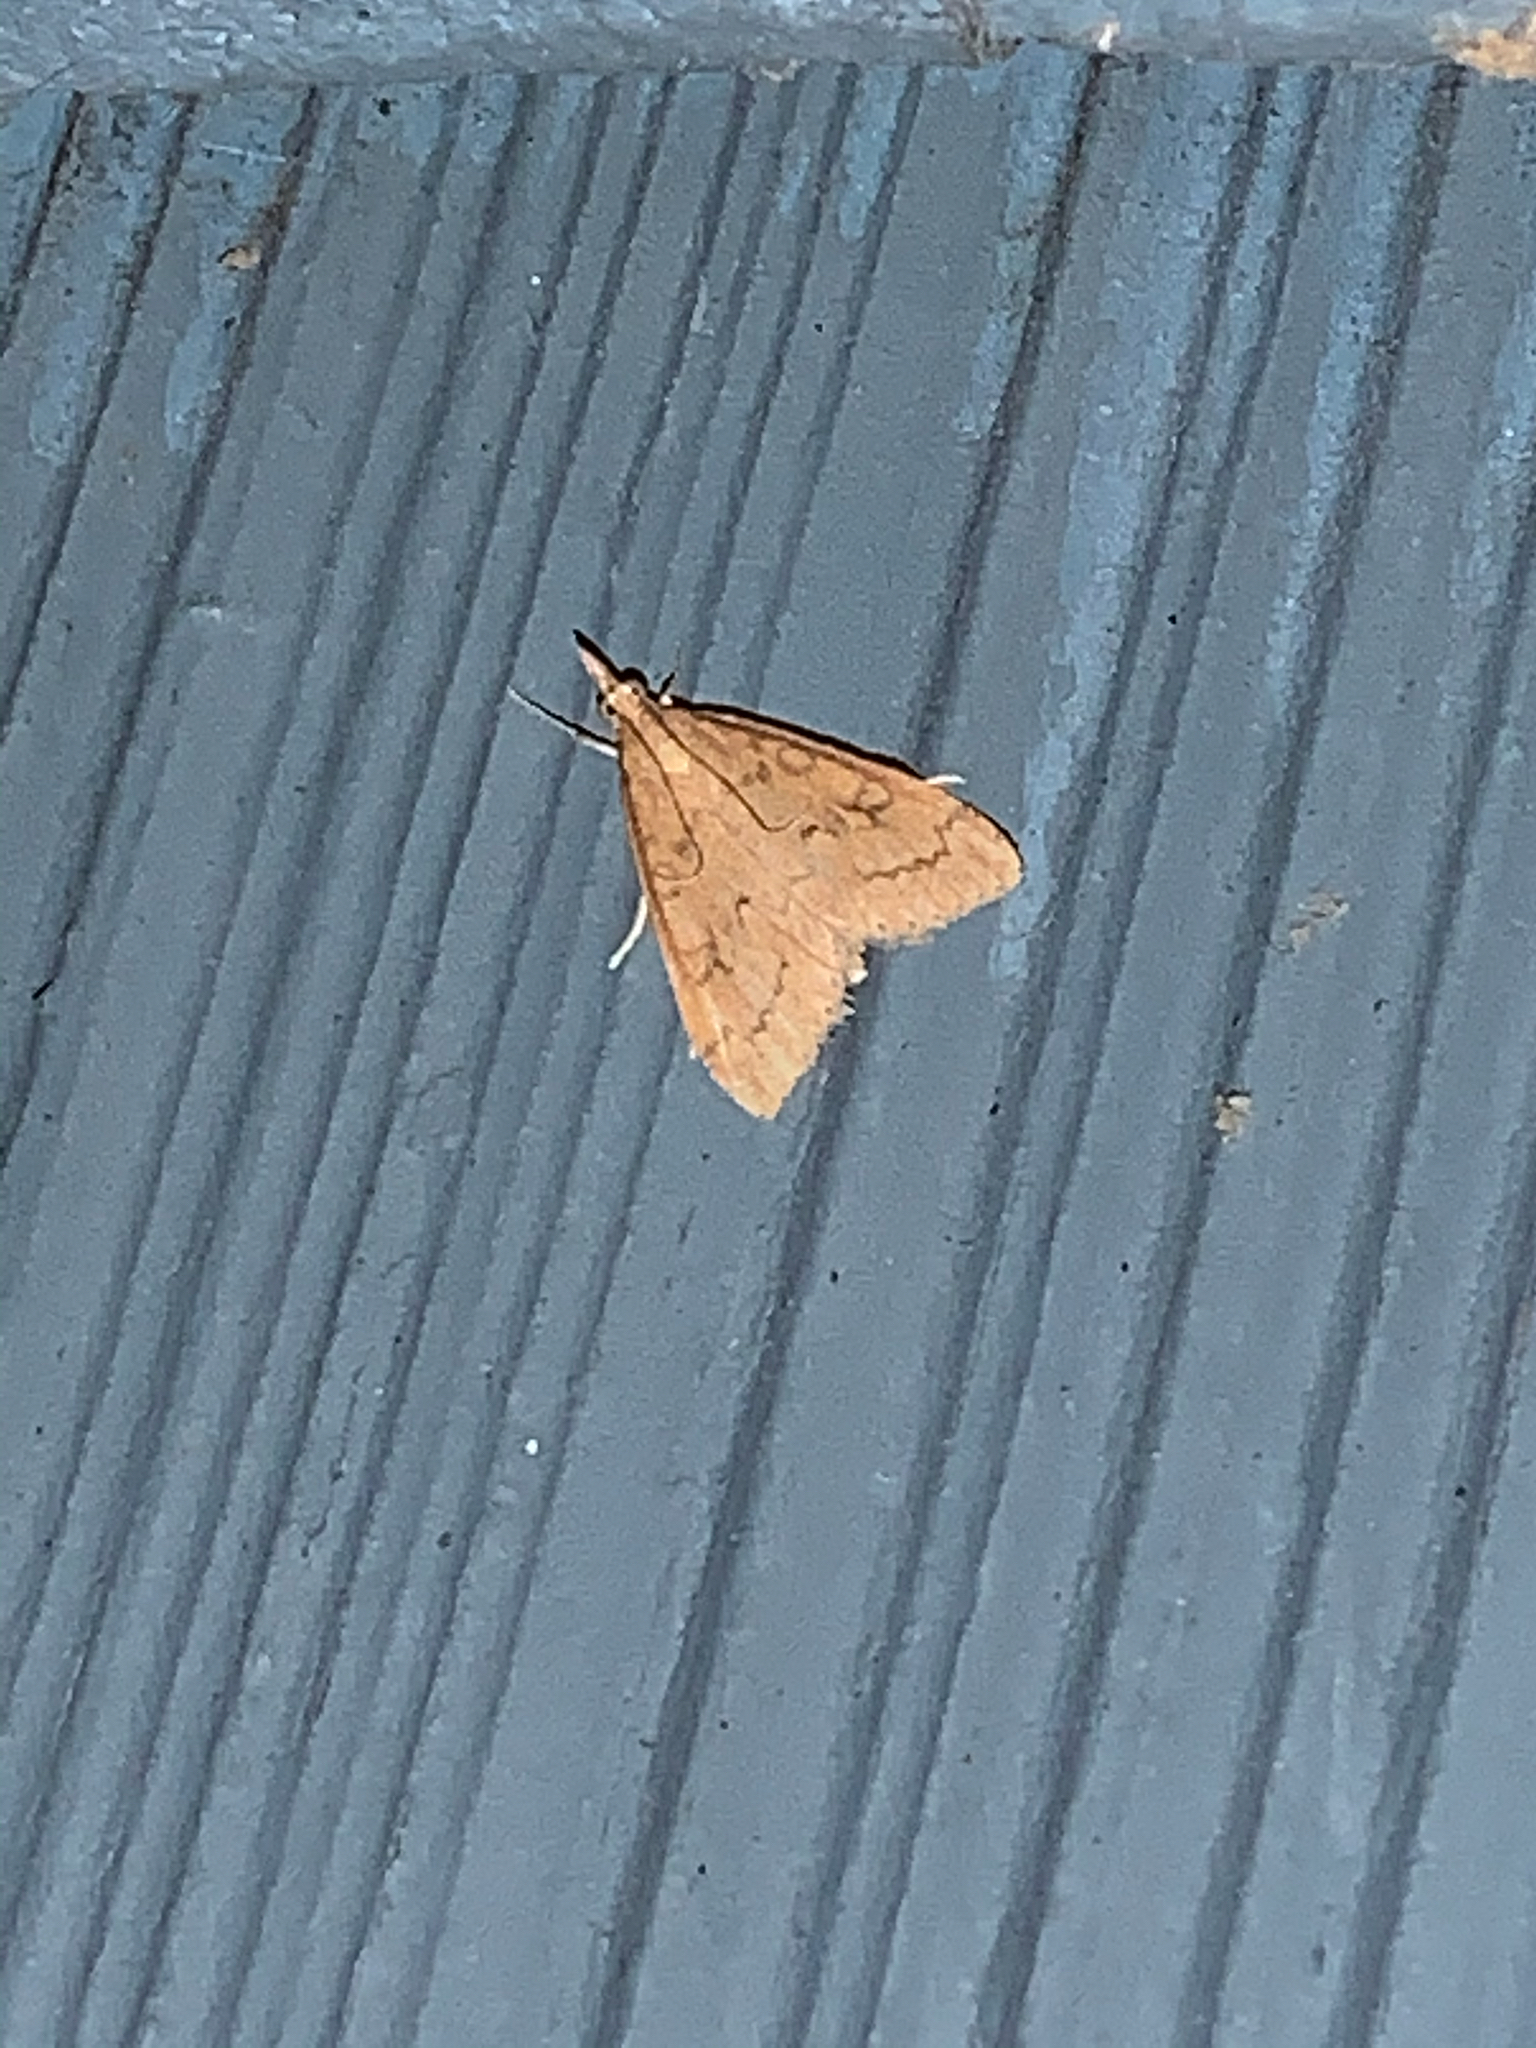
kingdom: Animalia
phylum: Arthropoda
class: Insecta
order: Lepidoptera
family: Crambidae
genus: Udea
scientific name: Udea rubigalis
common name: Celery leaftier moth
